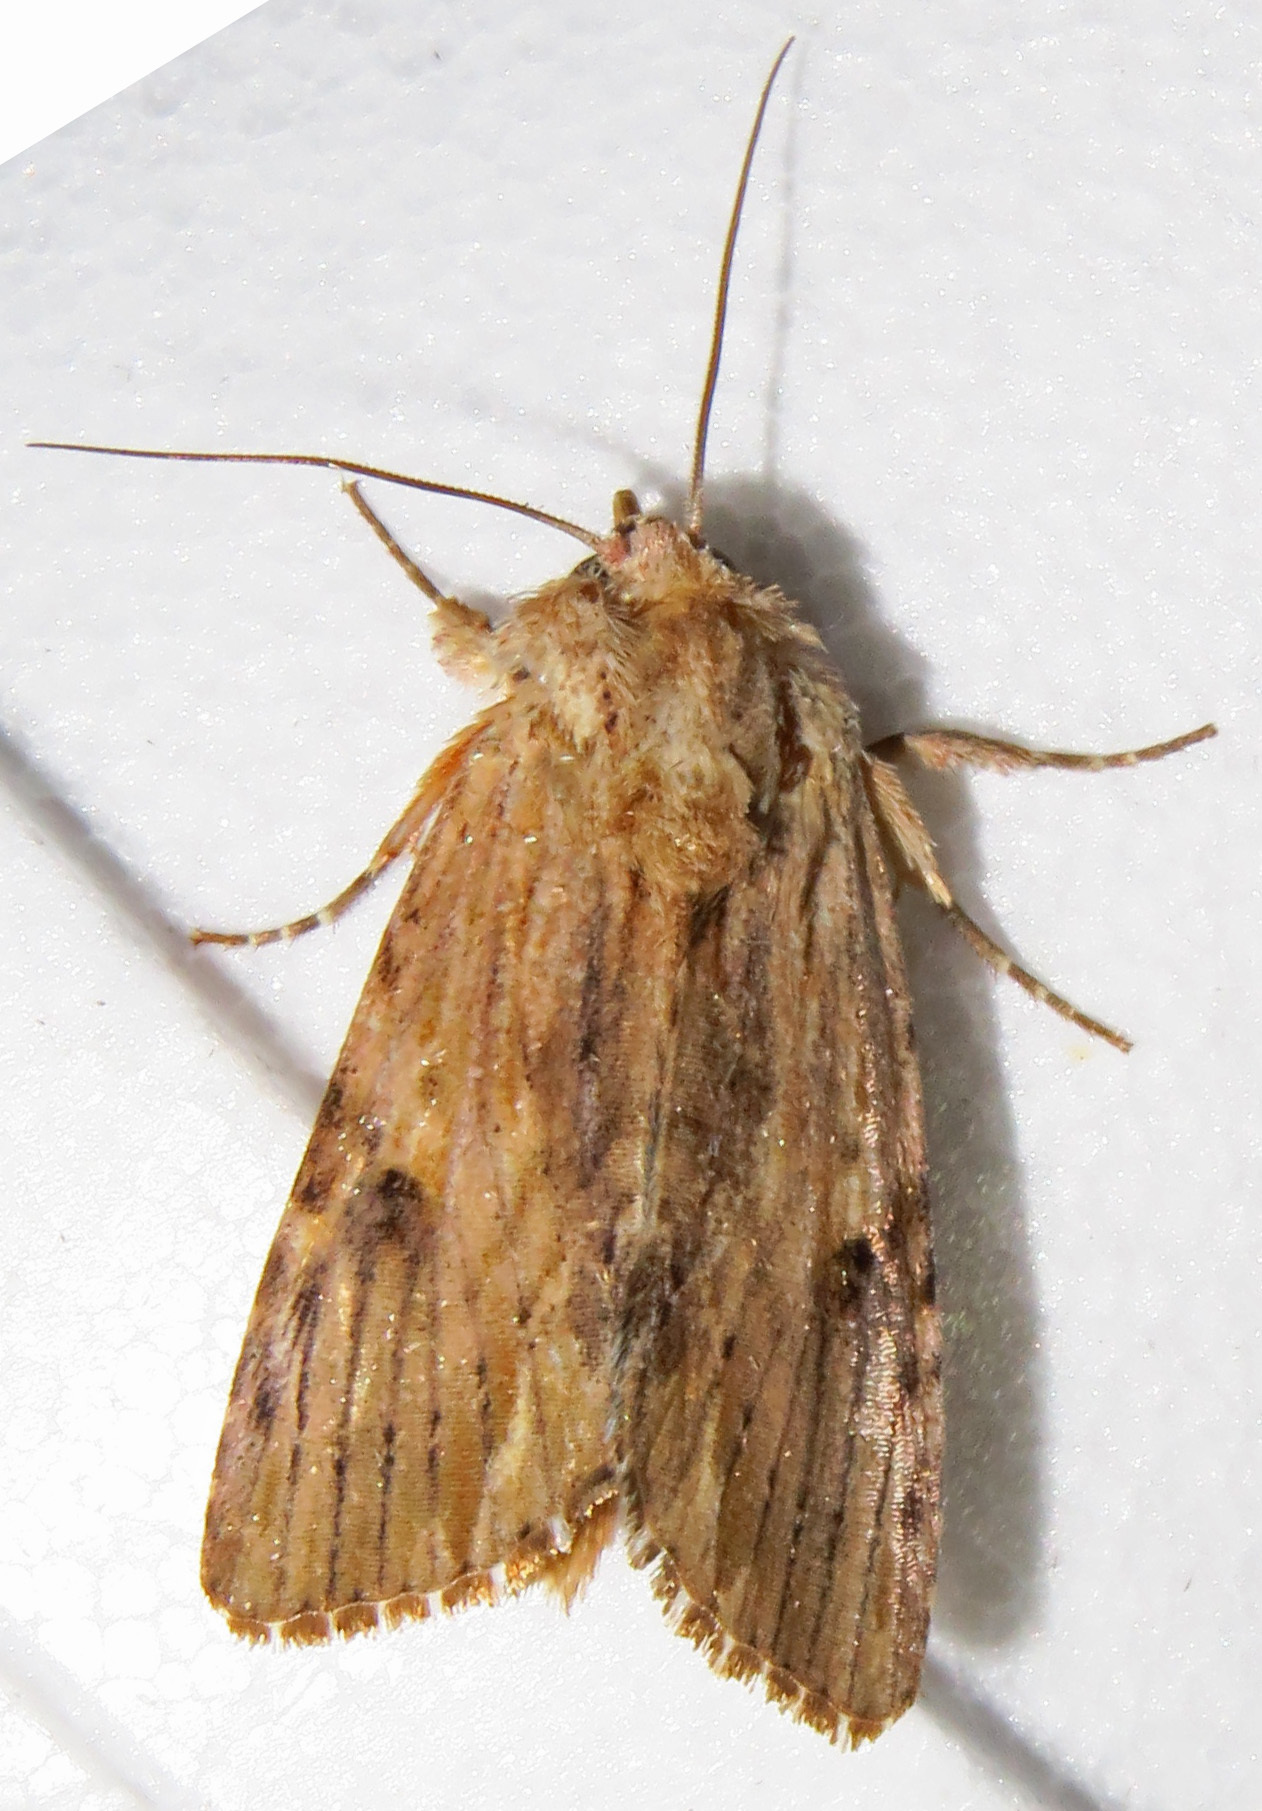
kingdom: Animalia
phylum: Arthropoda
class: Insecta
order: Lepidoptera
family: Noctuidae
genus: Spodoptera
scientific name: Spodoptera eridania
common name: Southern army worm
